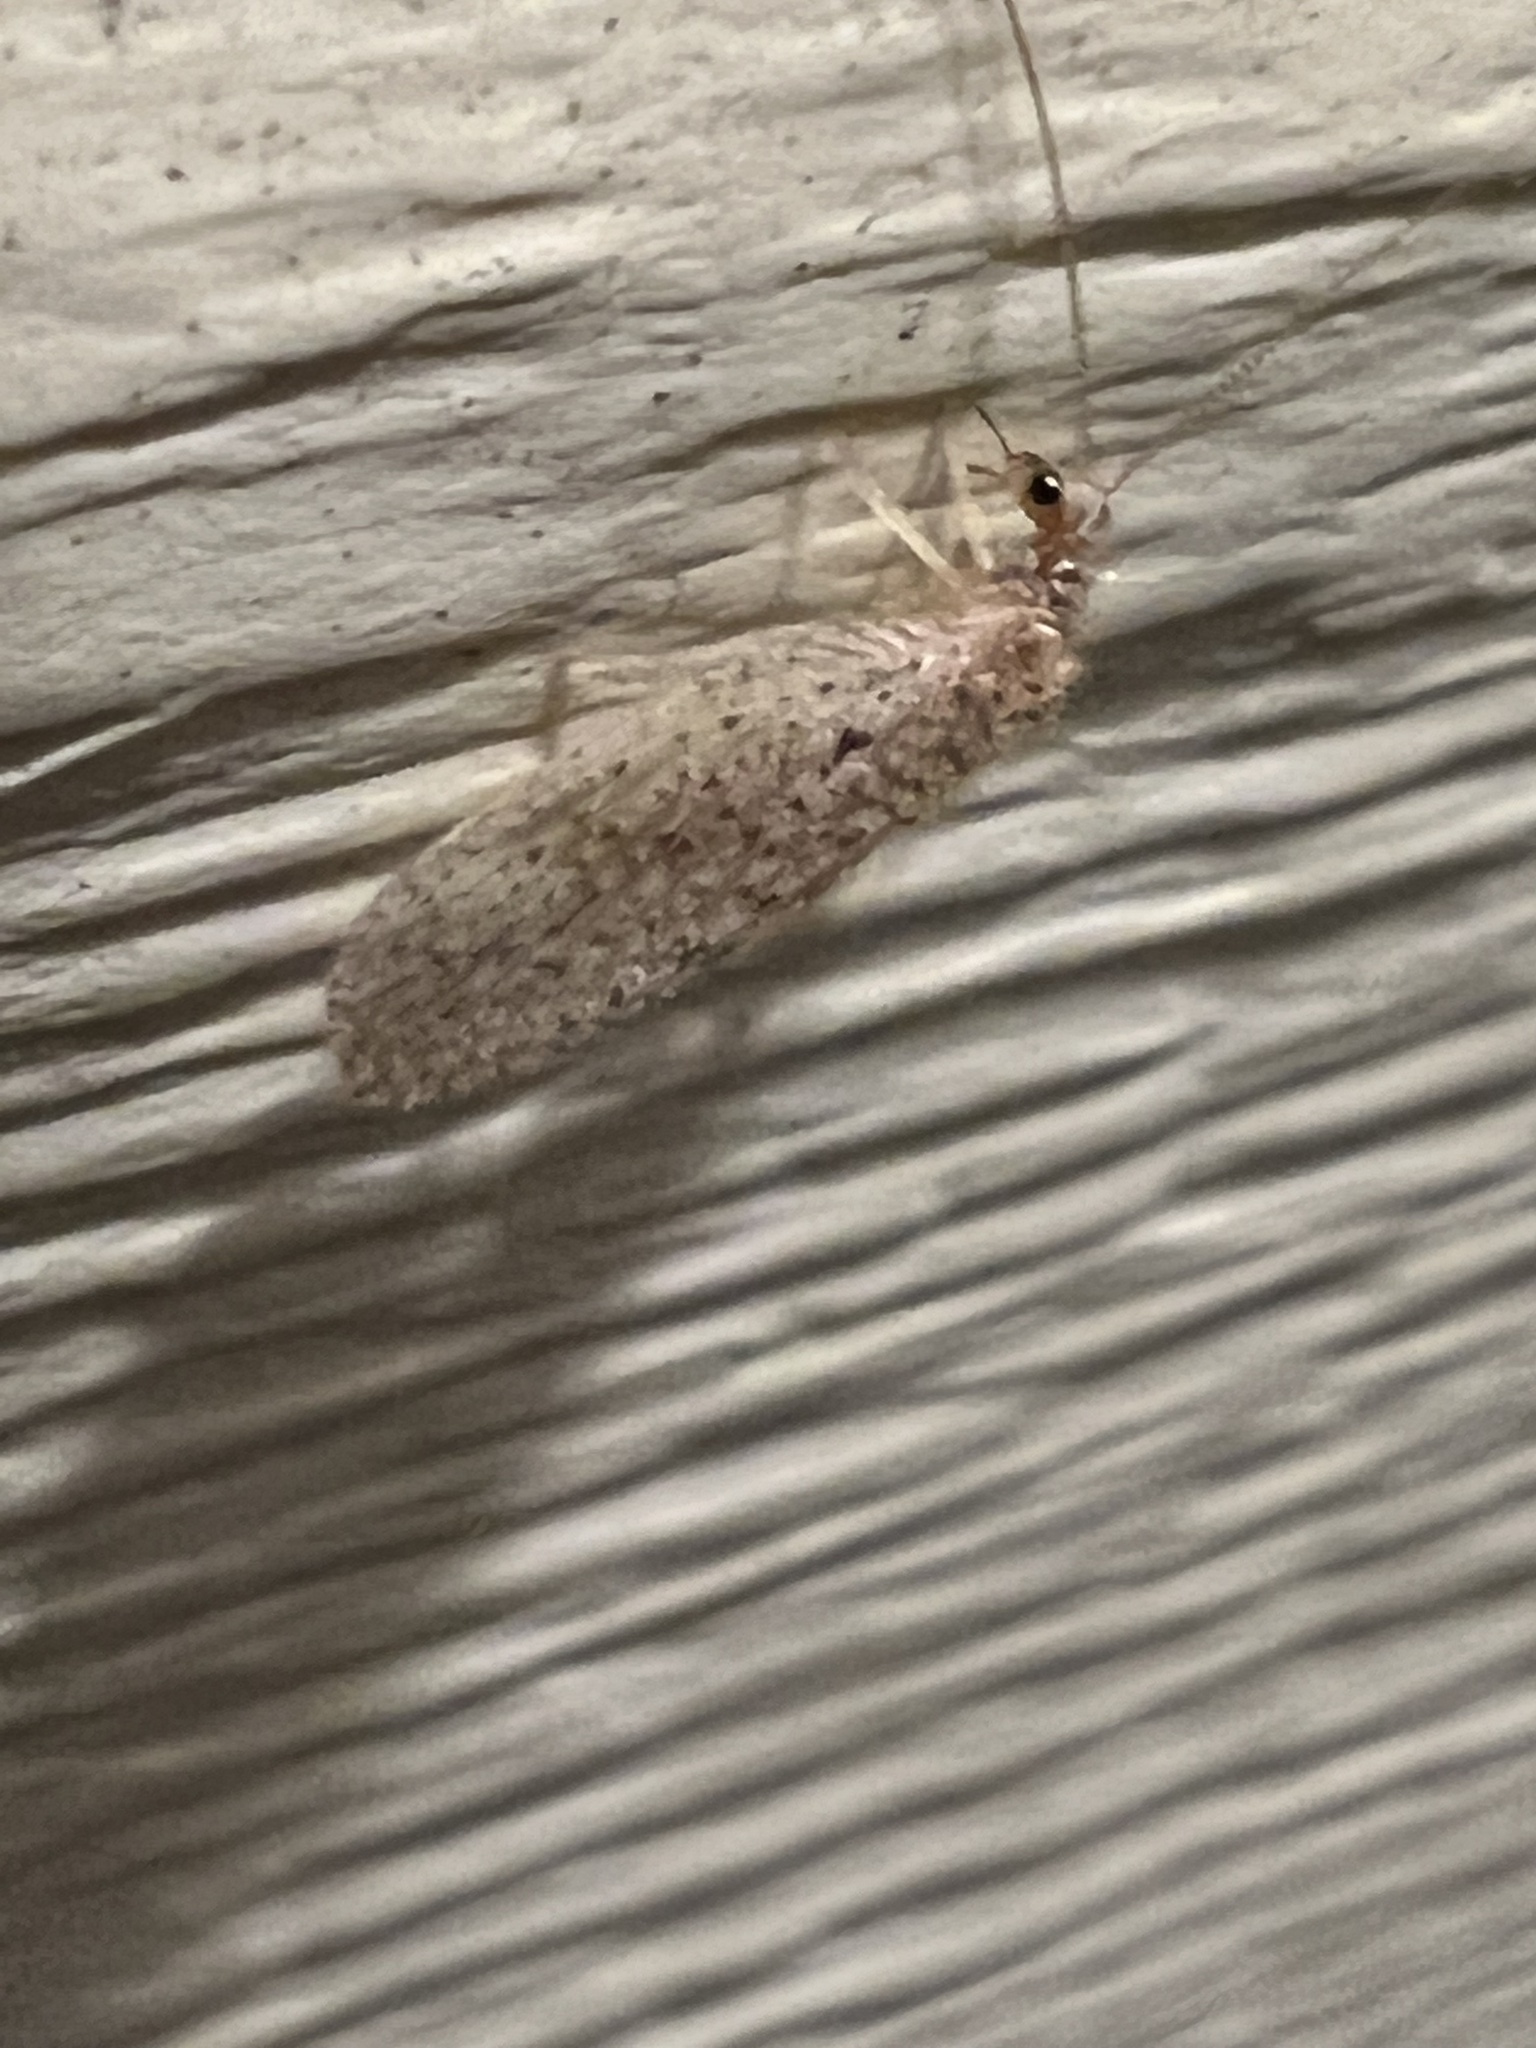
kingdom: Animalia
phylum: Arthropoda
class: Insecta
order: Neuroptera
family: Hemerobiidae
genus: Micromus
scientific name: Micromus subanticus
